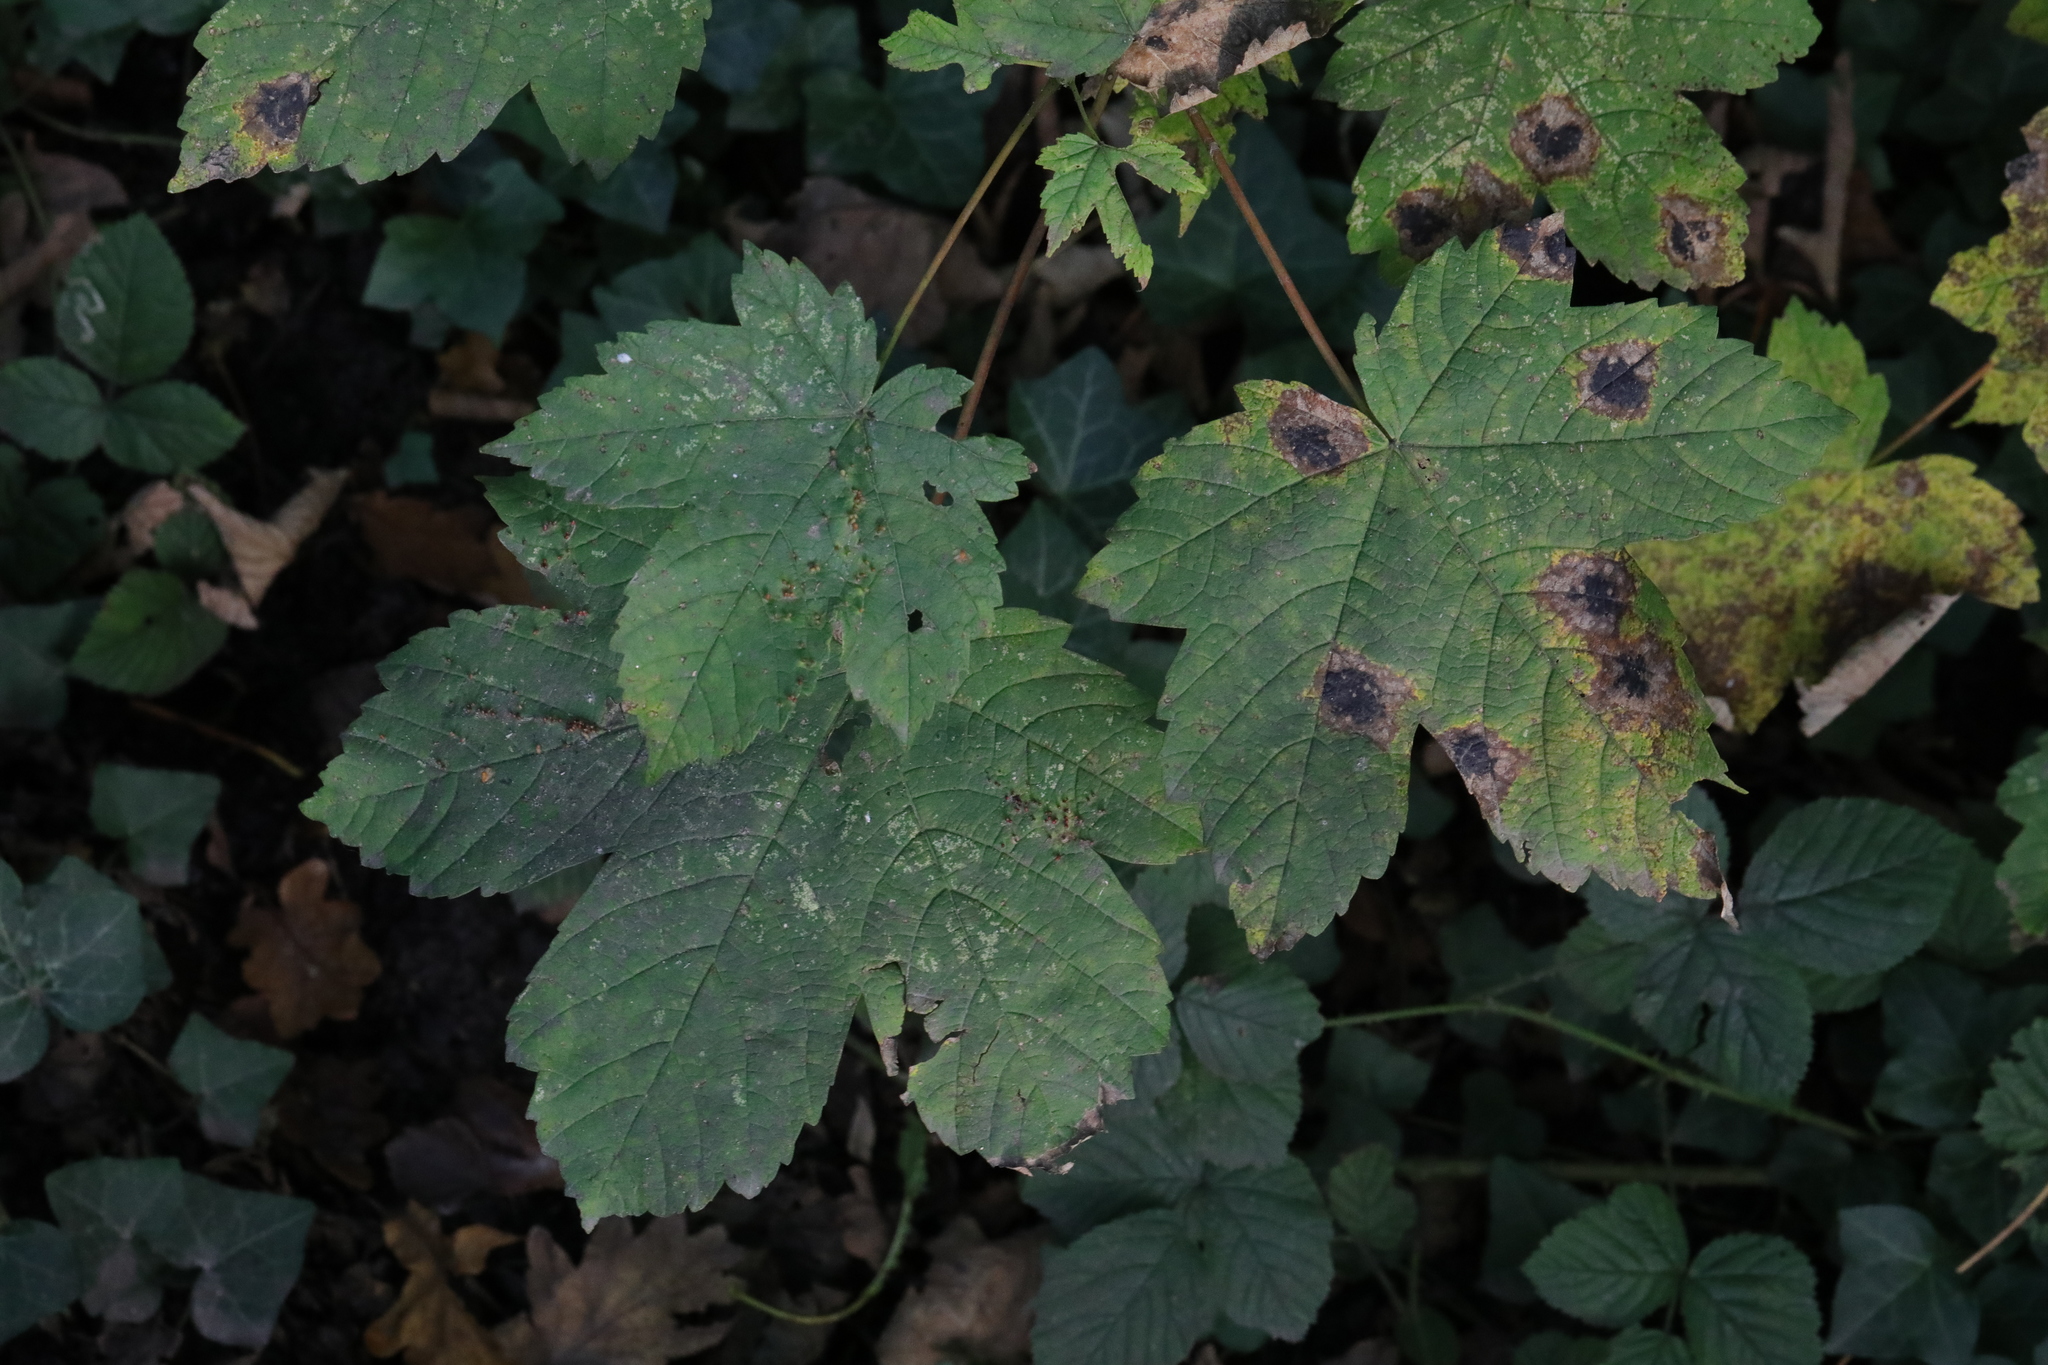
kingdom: Plantae
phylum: Tracheophyta
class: Magnoliopsida
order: Sapindales
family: Sapindaceae
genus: Acer
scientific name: Acer pseudoplatanus
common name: Sycamore
